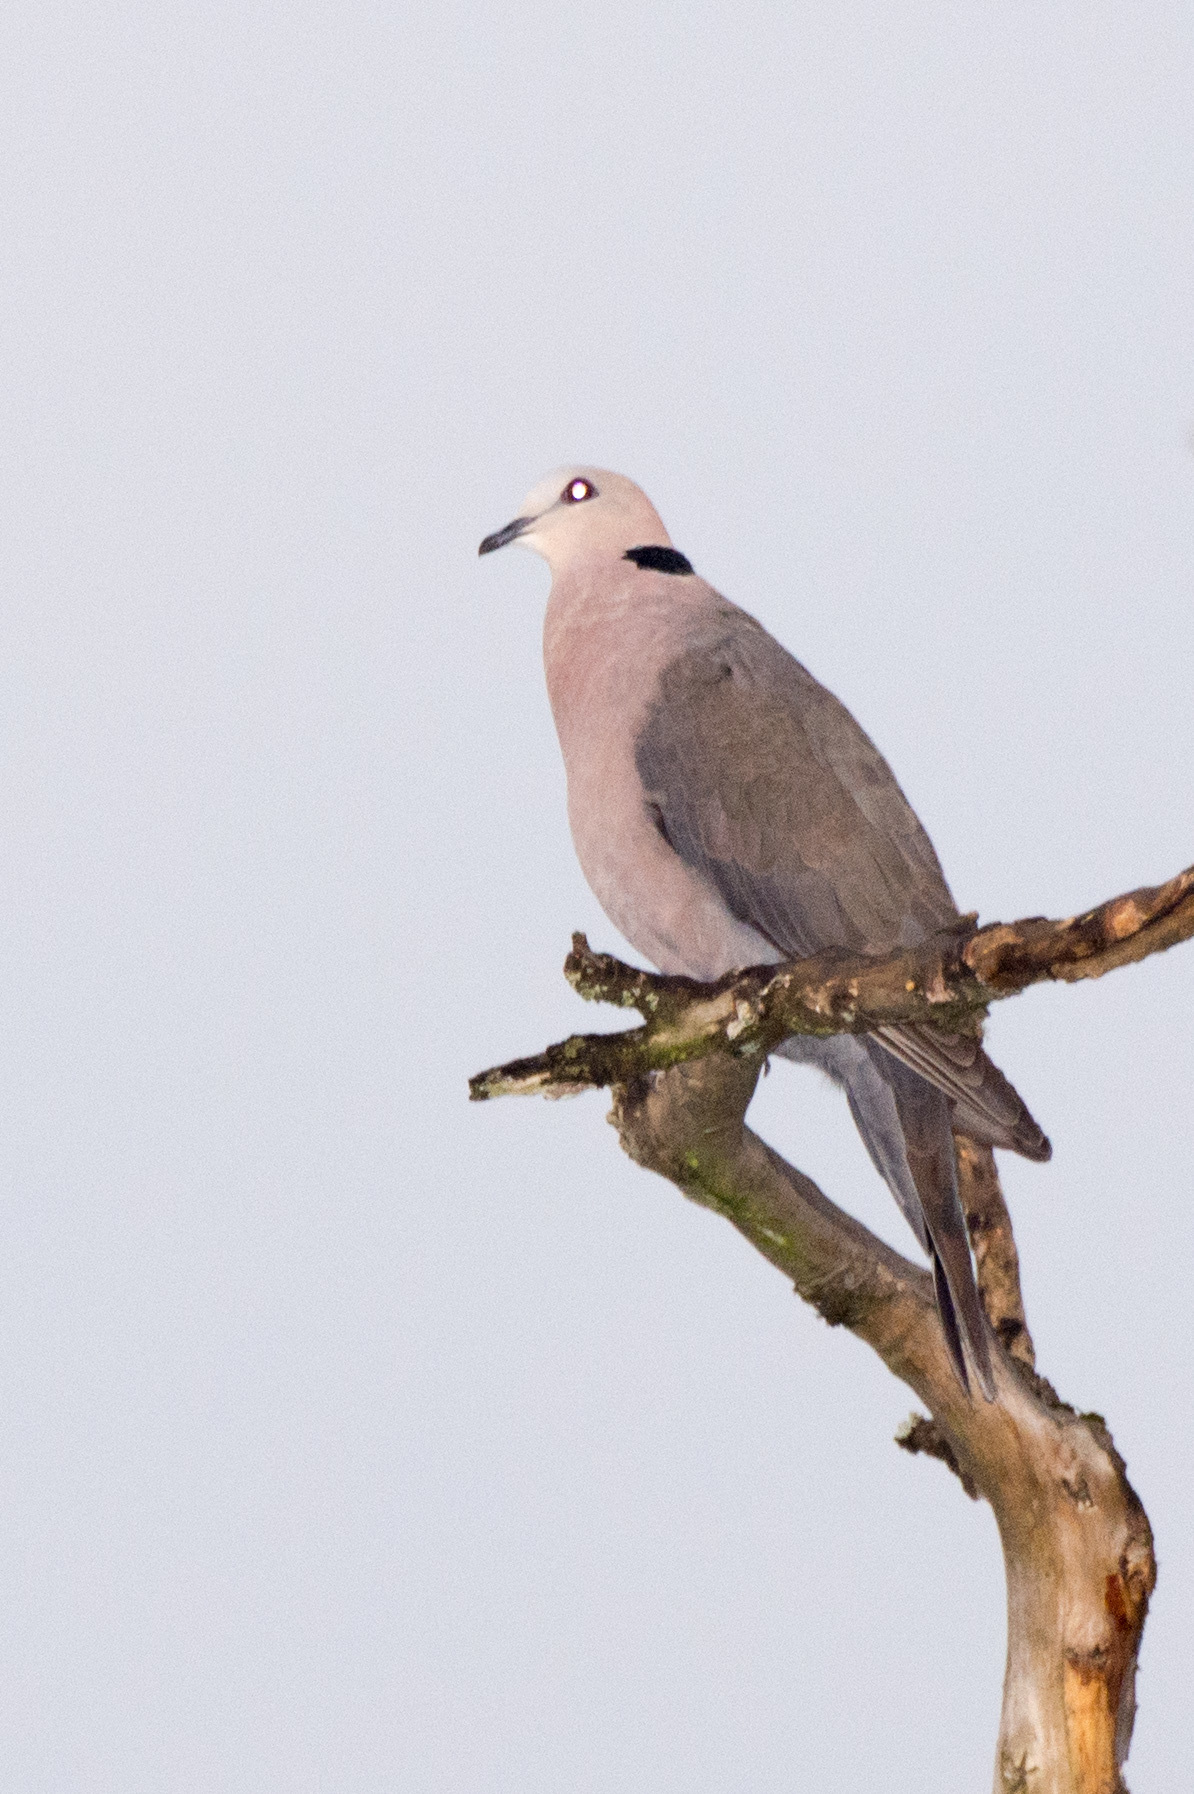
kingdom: Animalia
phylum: Chordata
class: Aves
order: Columbiformes
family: Columbidae
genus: Streptopelia
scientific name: Streptopelia semitorquata
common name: Red-eyed dove
